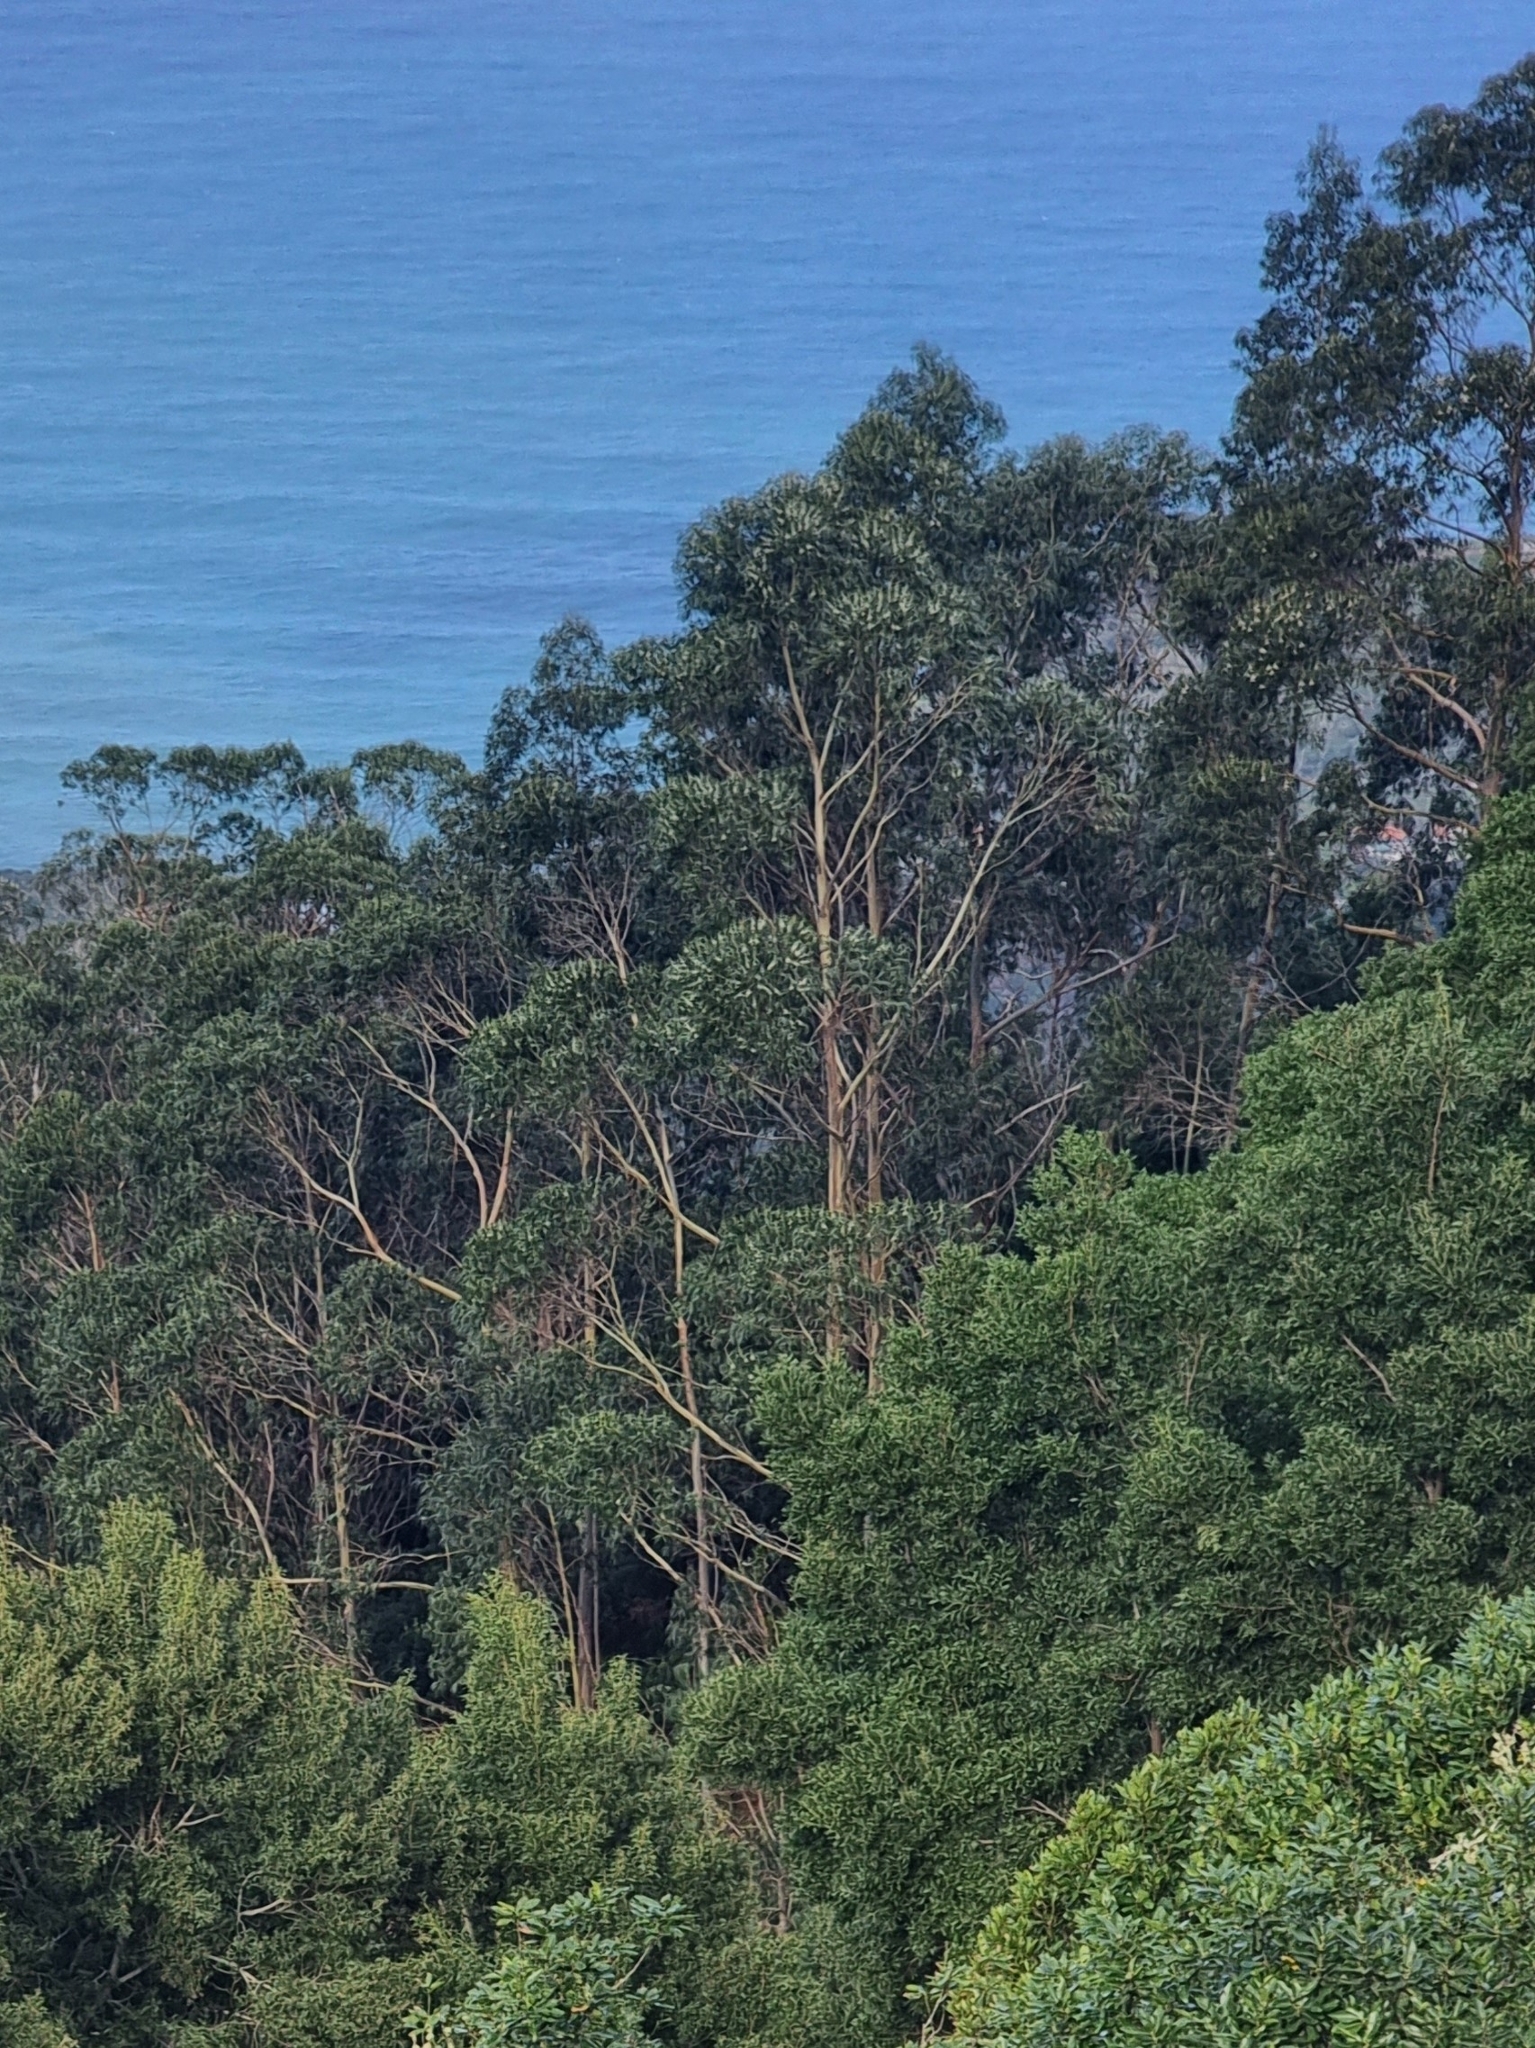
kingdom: Plantae
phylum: Tracheophyta
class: Magnoliopsida
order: Myrtales
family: Myrtaceae
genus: Eucalyptus
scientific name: Eucalyptus globulus
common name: Southern blue-gum
